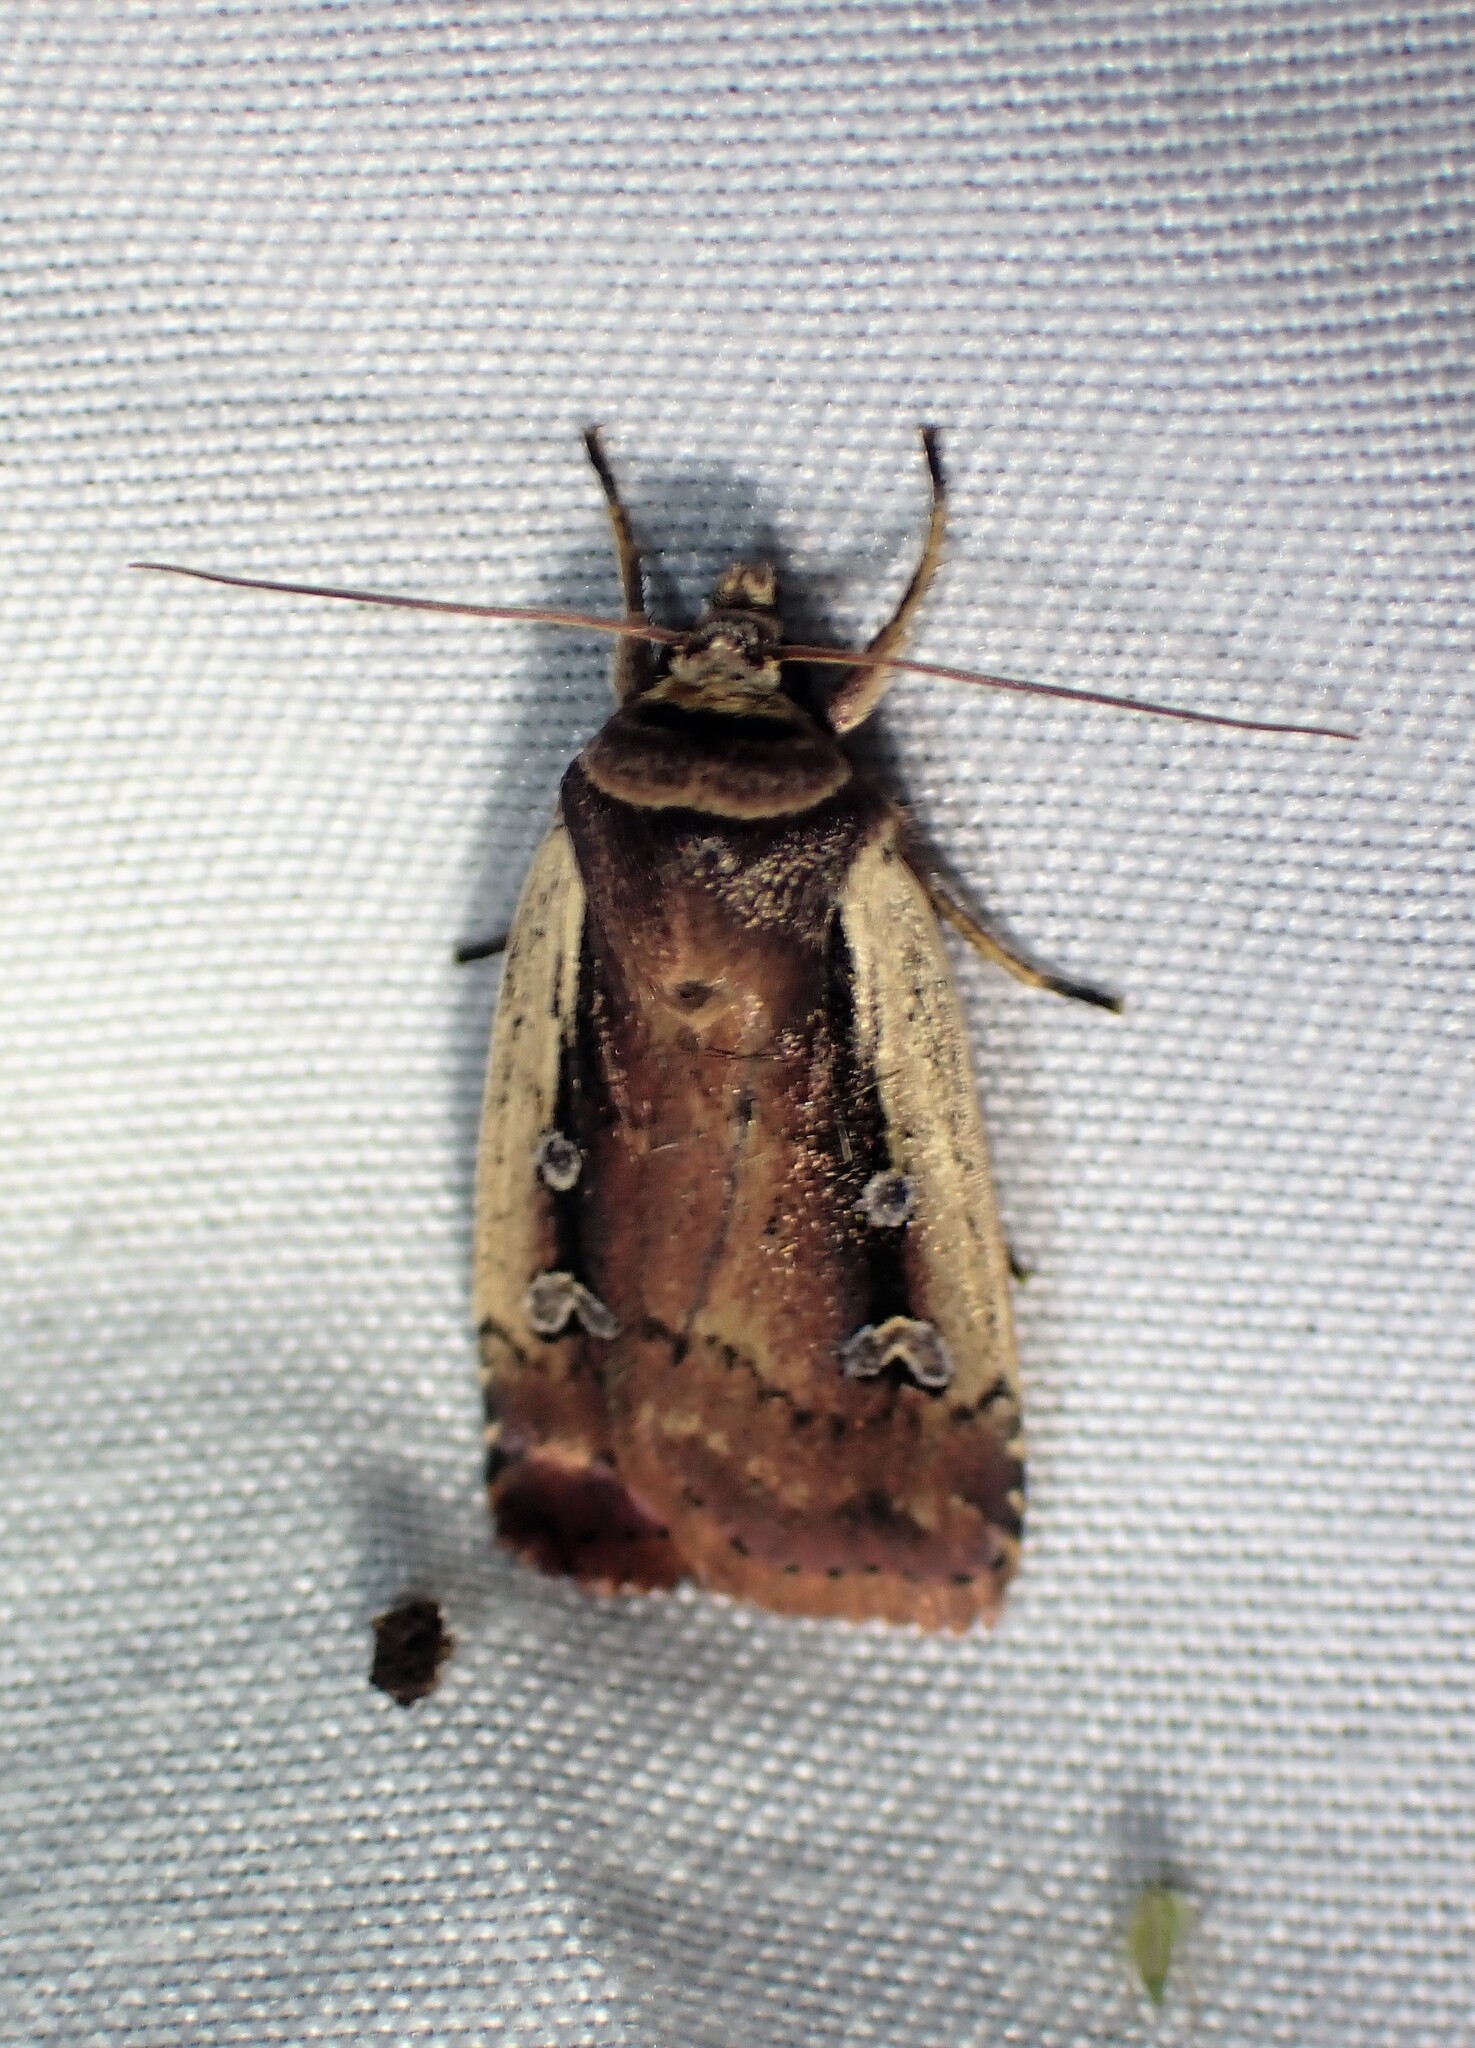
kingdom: Animalia
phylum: Arthropoda
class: Insecta
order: Lepidoptera
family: Noctuidae
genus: Ochropleura
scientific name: Ochropleura implecta
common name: Flame-shouldered dart
